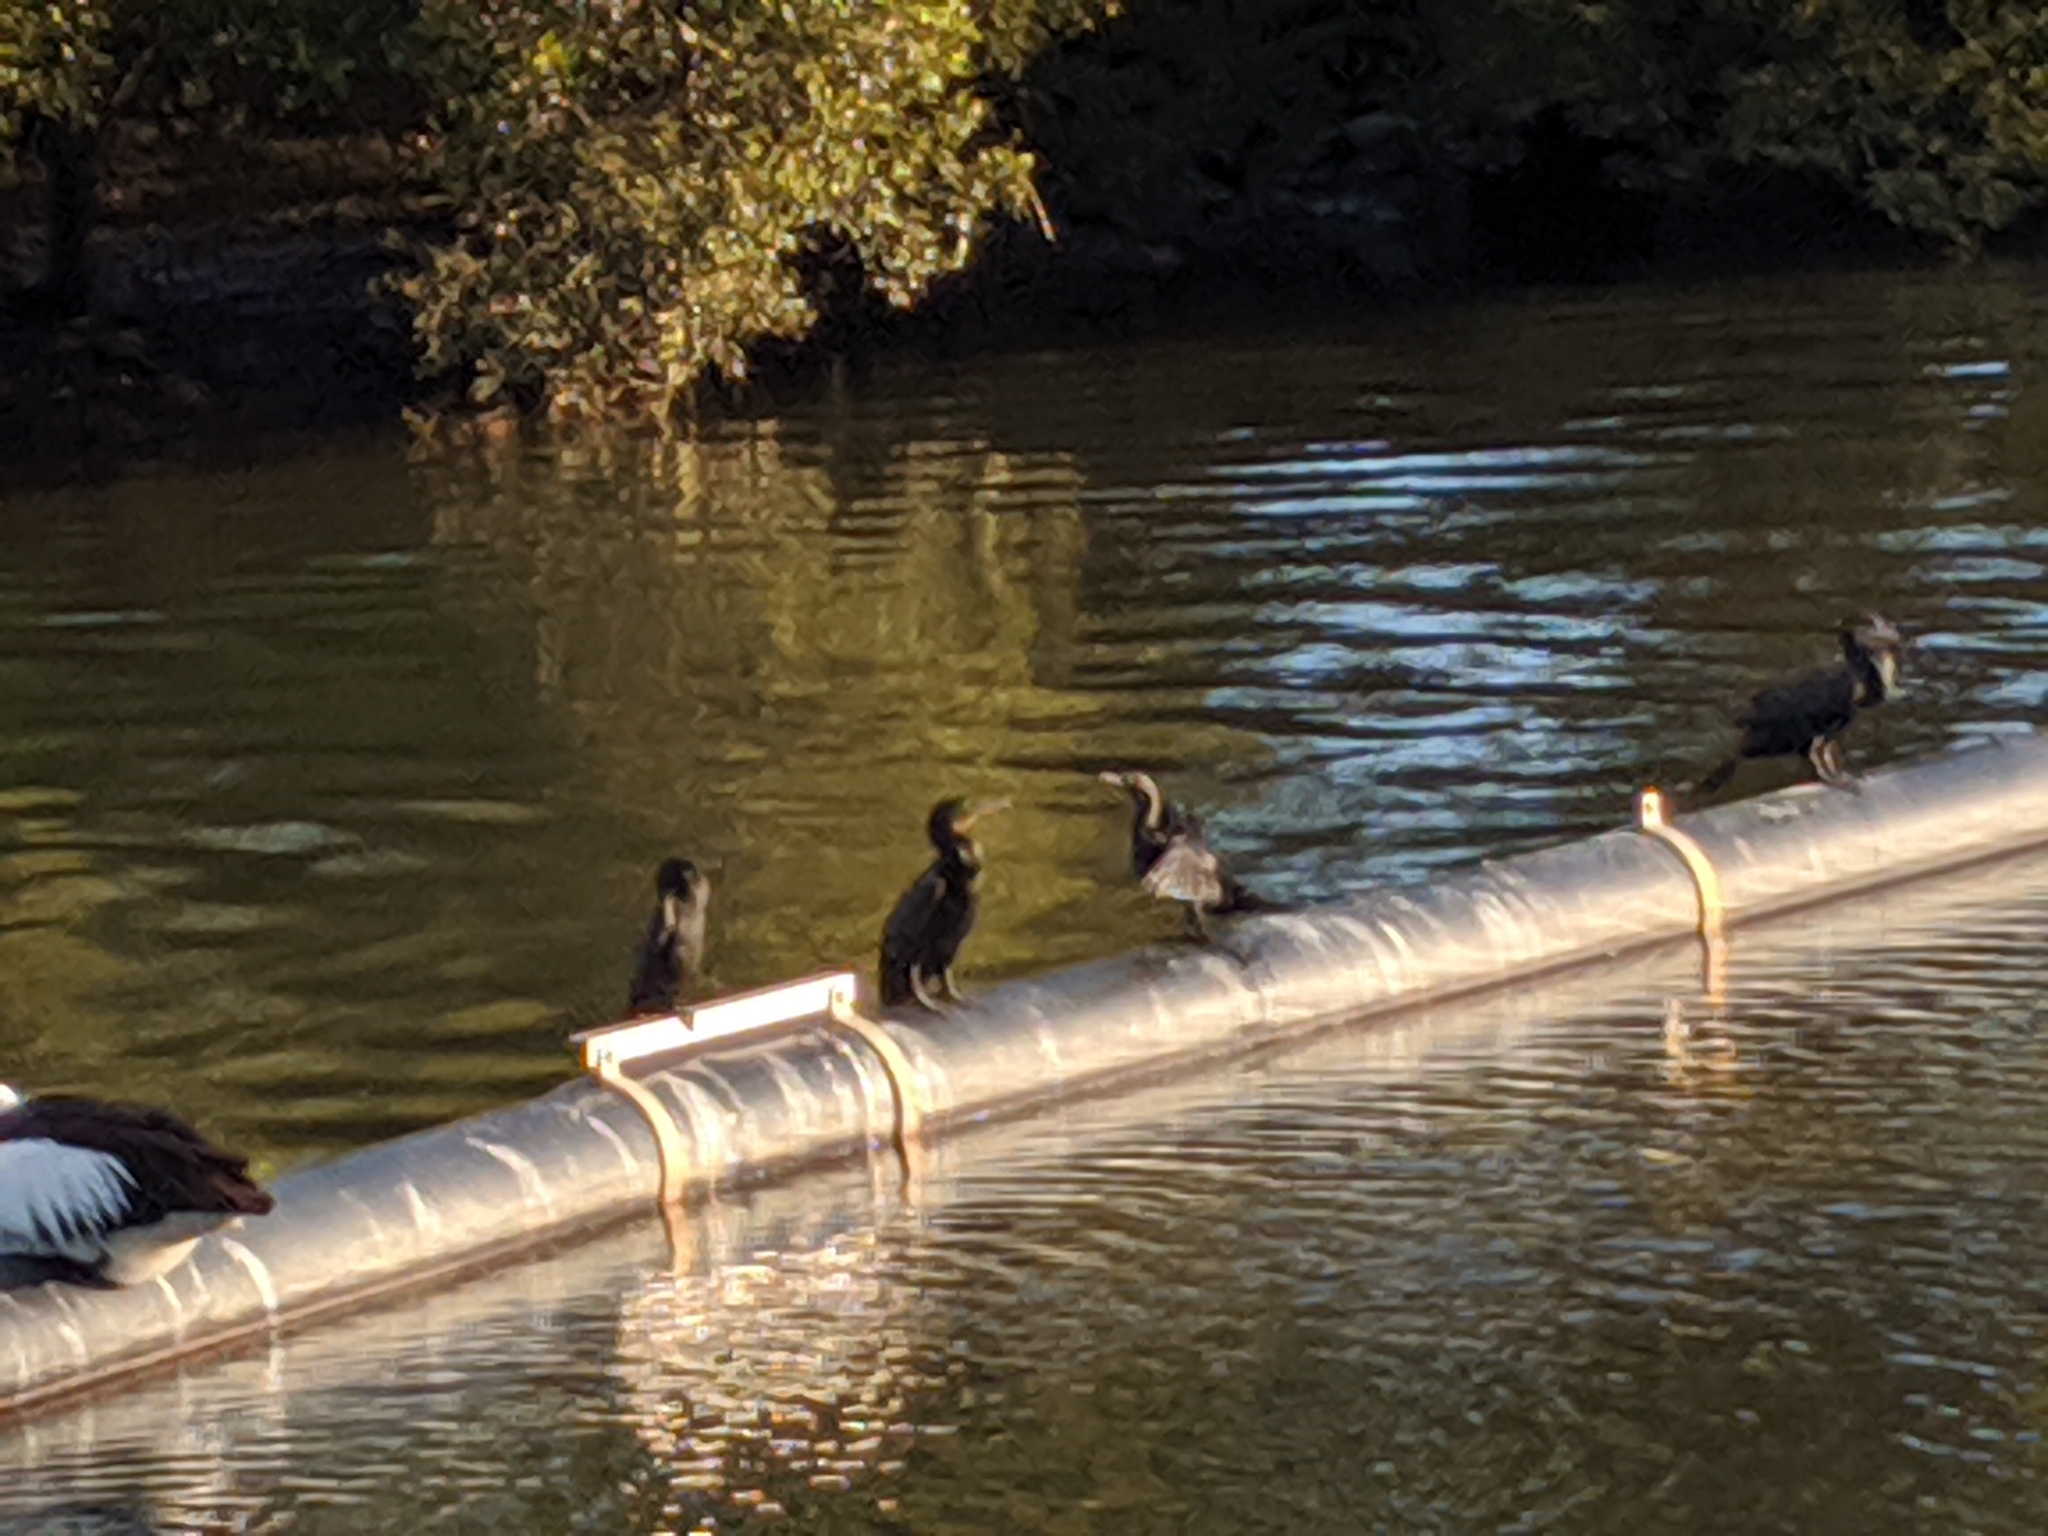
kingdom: Animalia
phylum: Chordata
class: Aves
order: Suliformes
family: Phalacrocoracidae
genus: Phalacrocorax
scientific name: Phalacrocorax carbo
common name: Great cormorant
